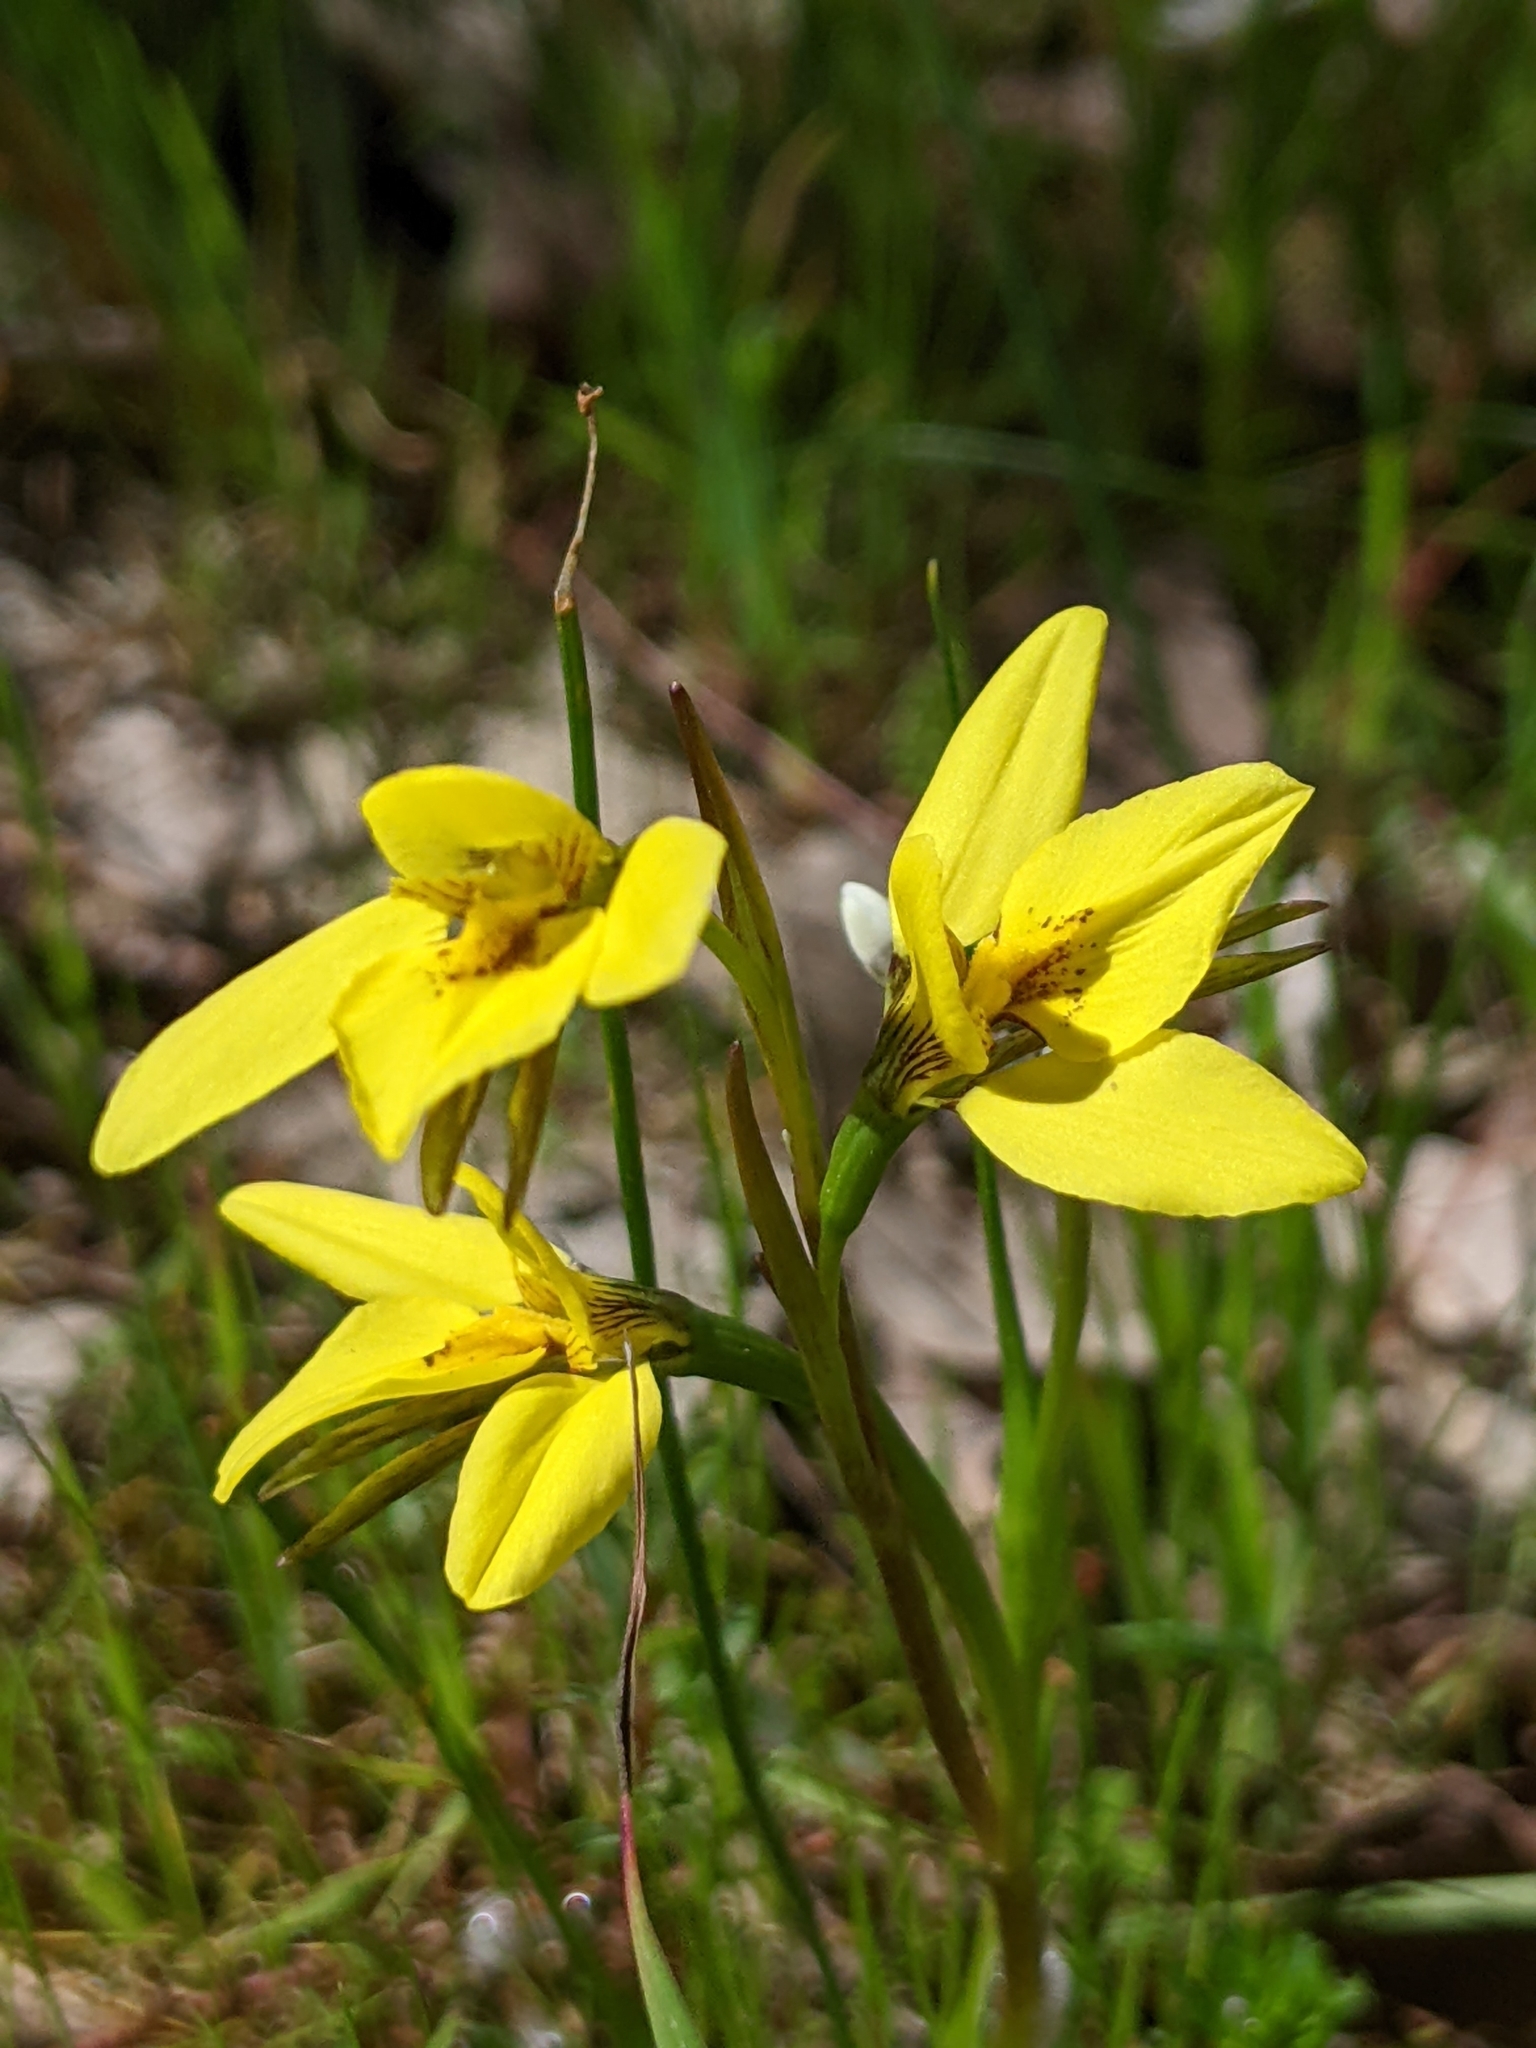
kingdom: Plantae
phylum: Tracheophyta
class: Liliopsida
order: Asparagales
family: Orchidaceae
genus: Diuris
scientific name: Diuris chryseopsis
